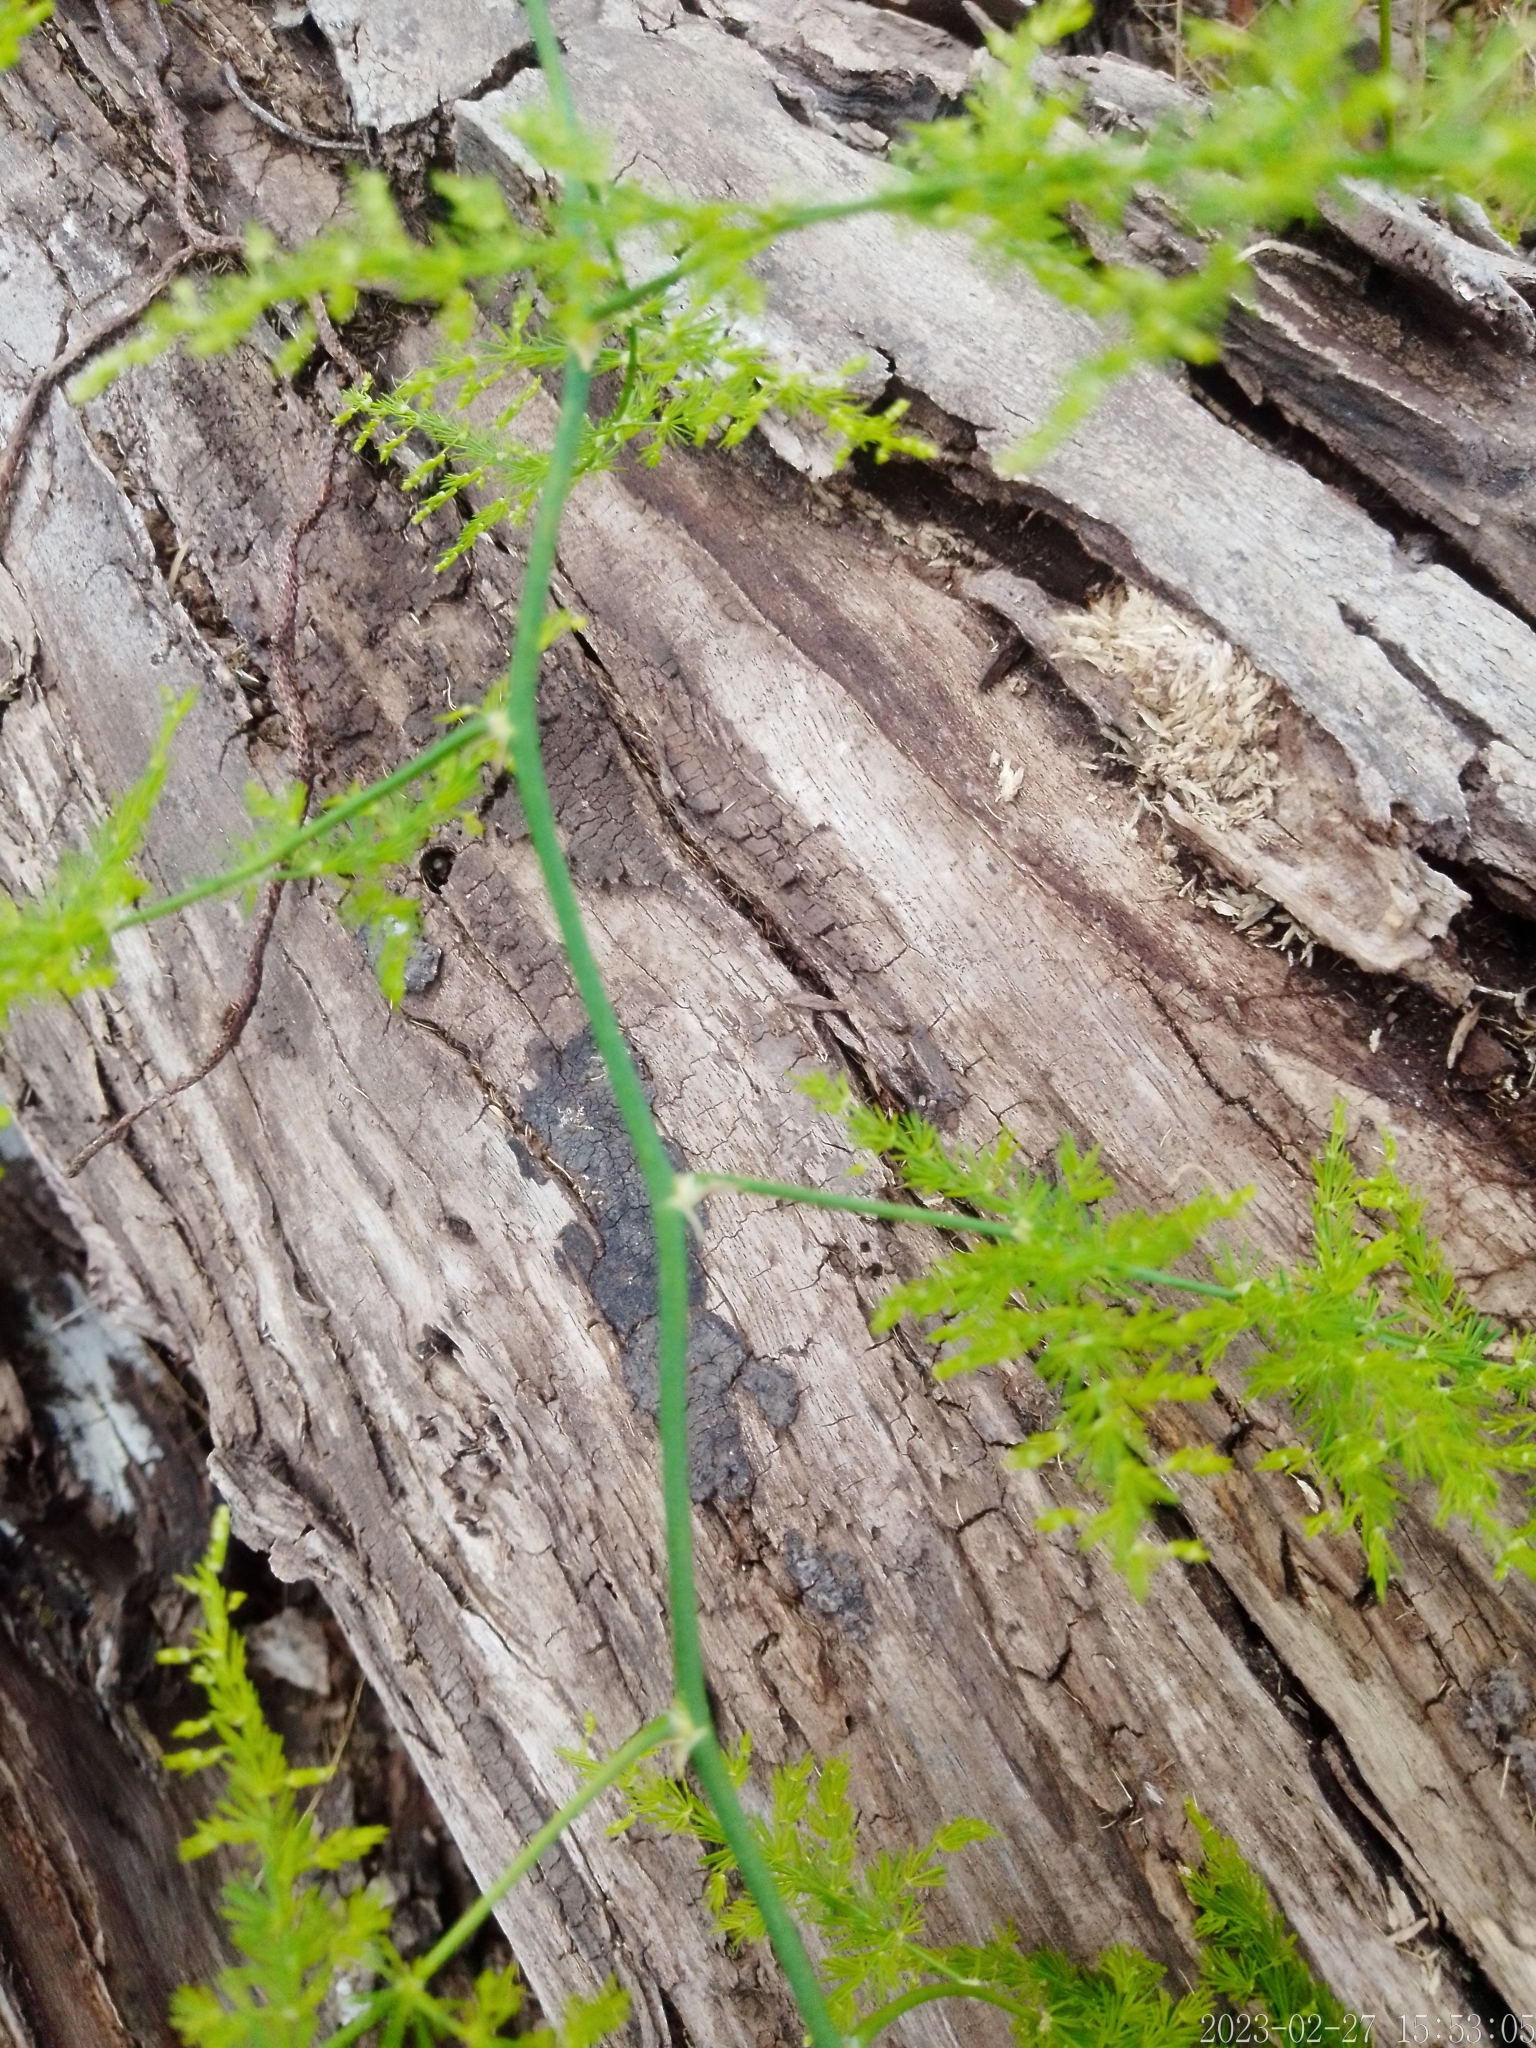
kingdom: Plantae
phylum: Tracheophyta
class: Liliopsida
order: Asparagales
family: Asparagaceae
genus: Asparagus
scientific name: Asparagus setaceus
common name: Common asparagus fern
